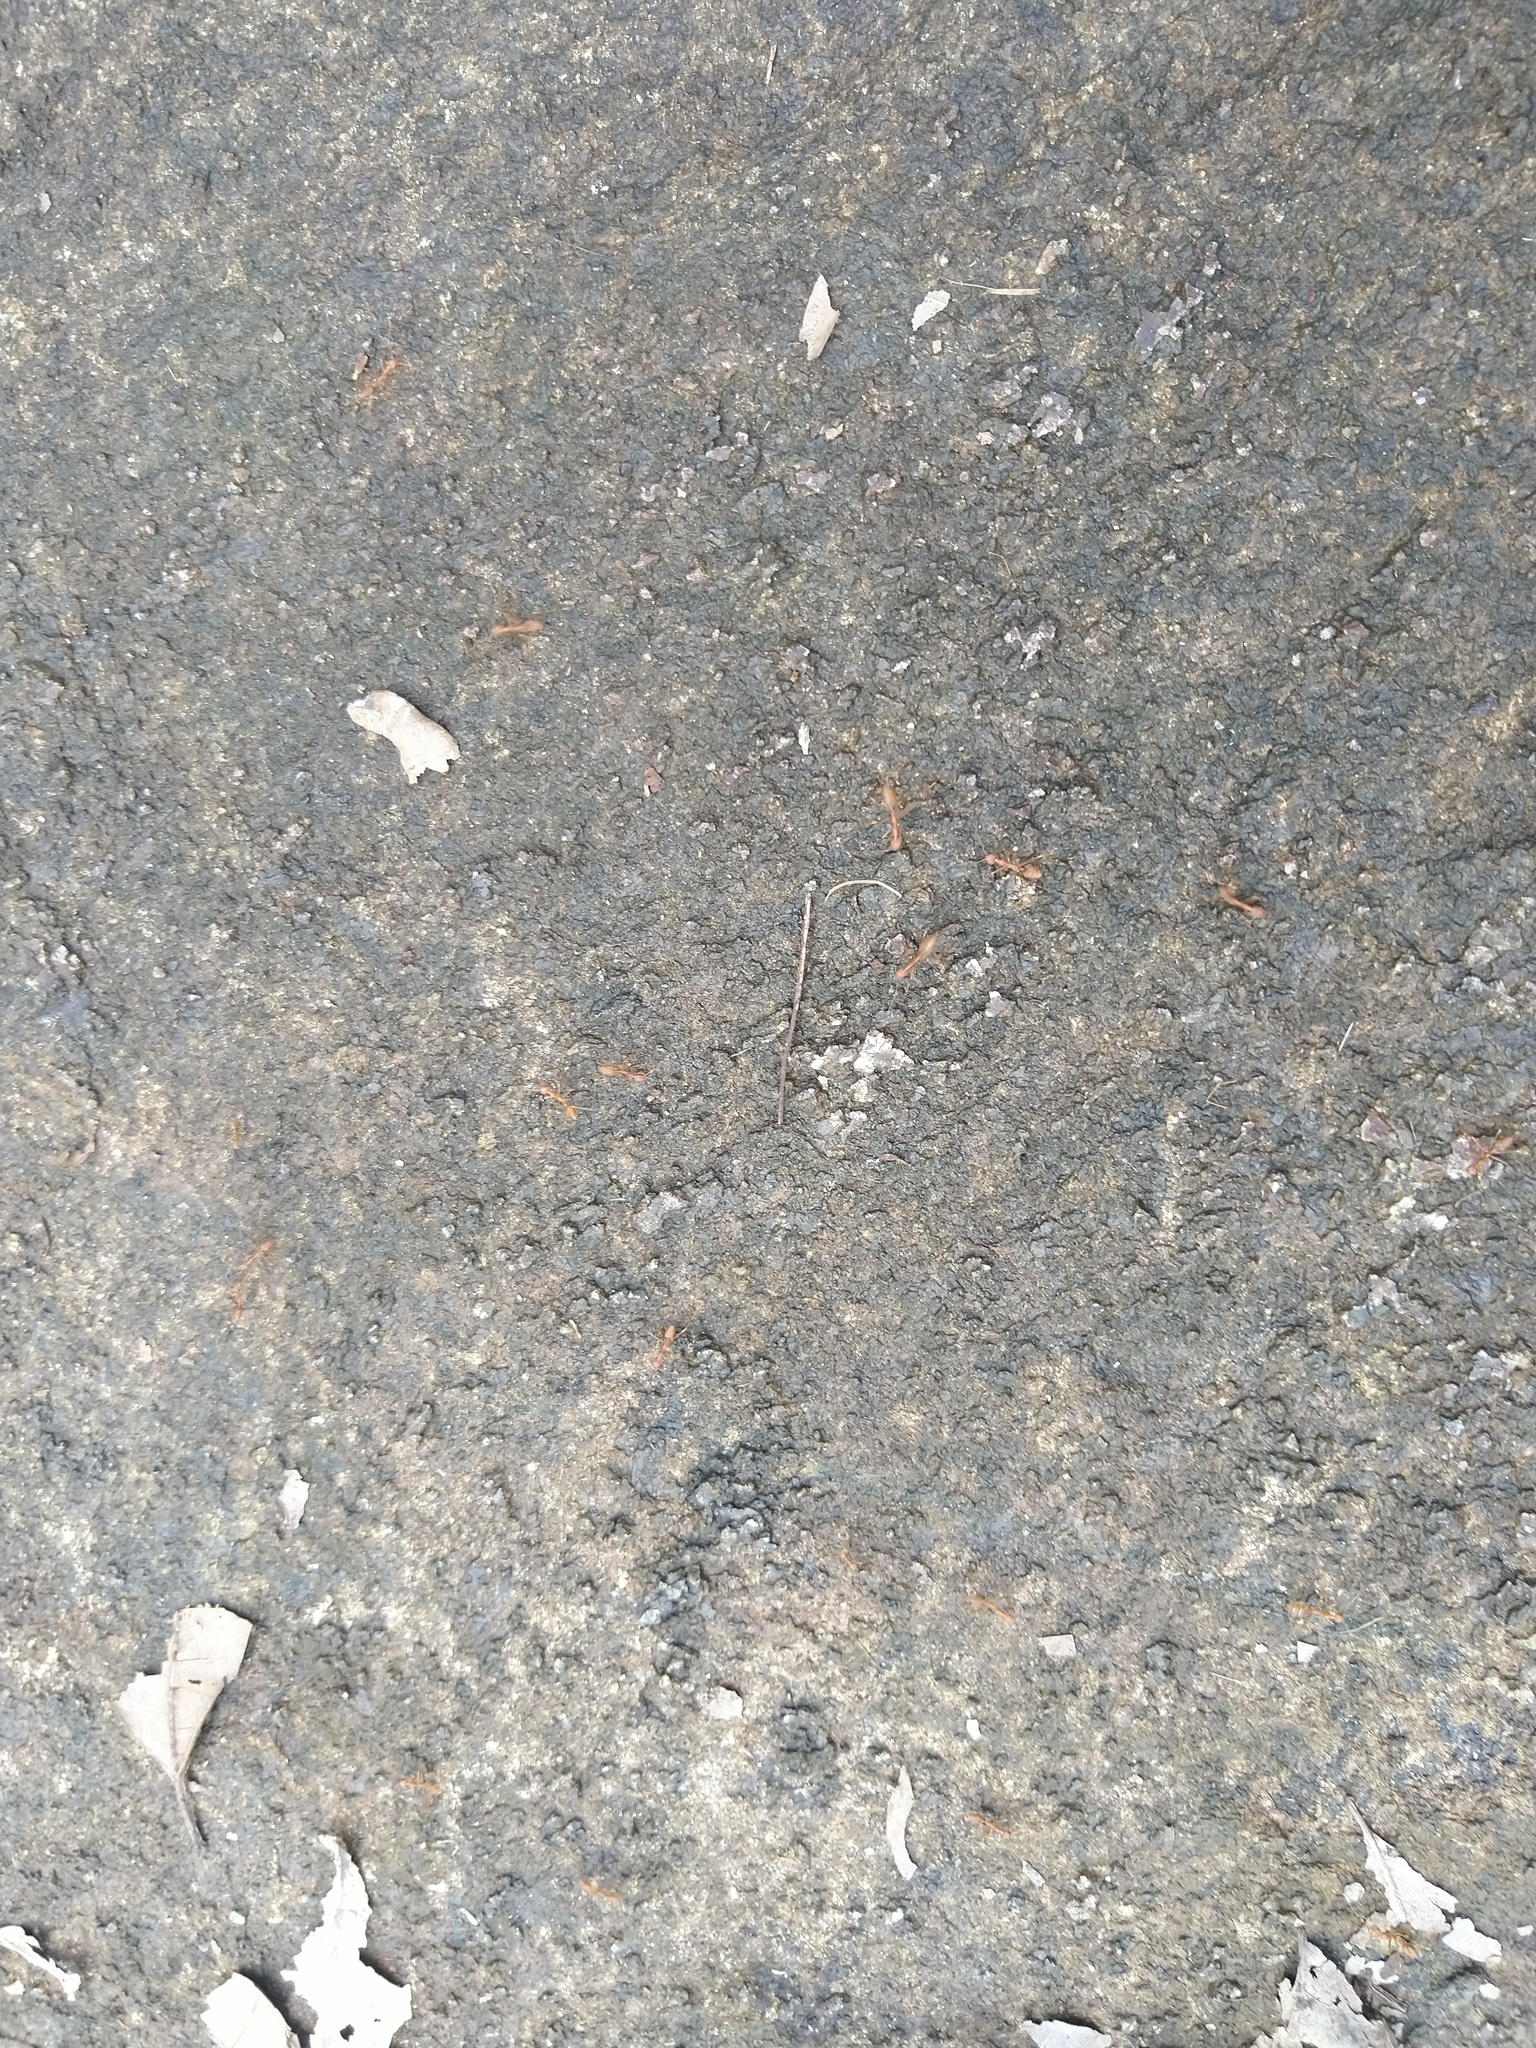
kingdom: Animalia
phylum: Arthropoda
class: Insecta
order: Hymenoptera
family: Formicidae
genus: Oecophylla
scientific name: Oecophylla smaragdina
